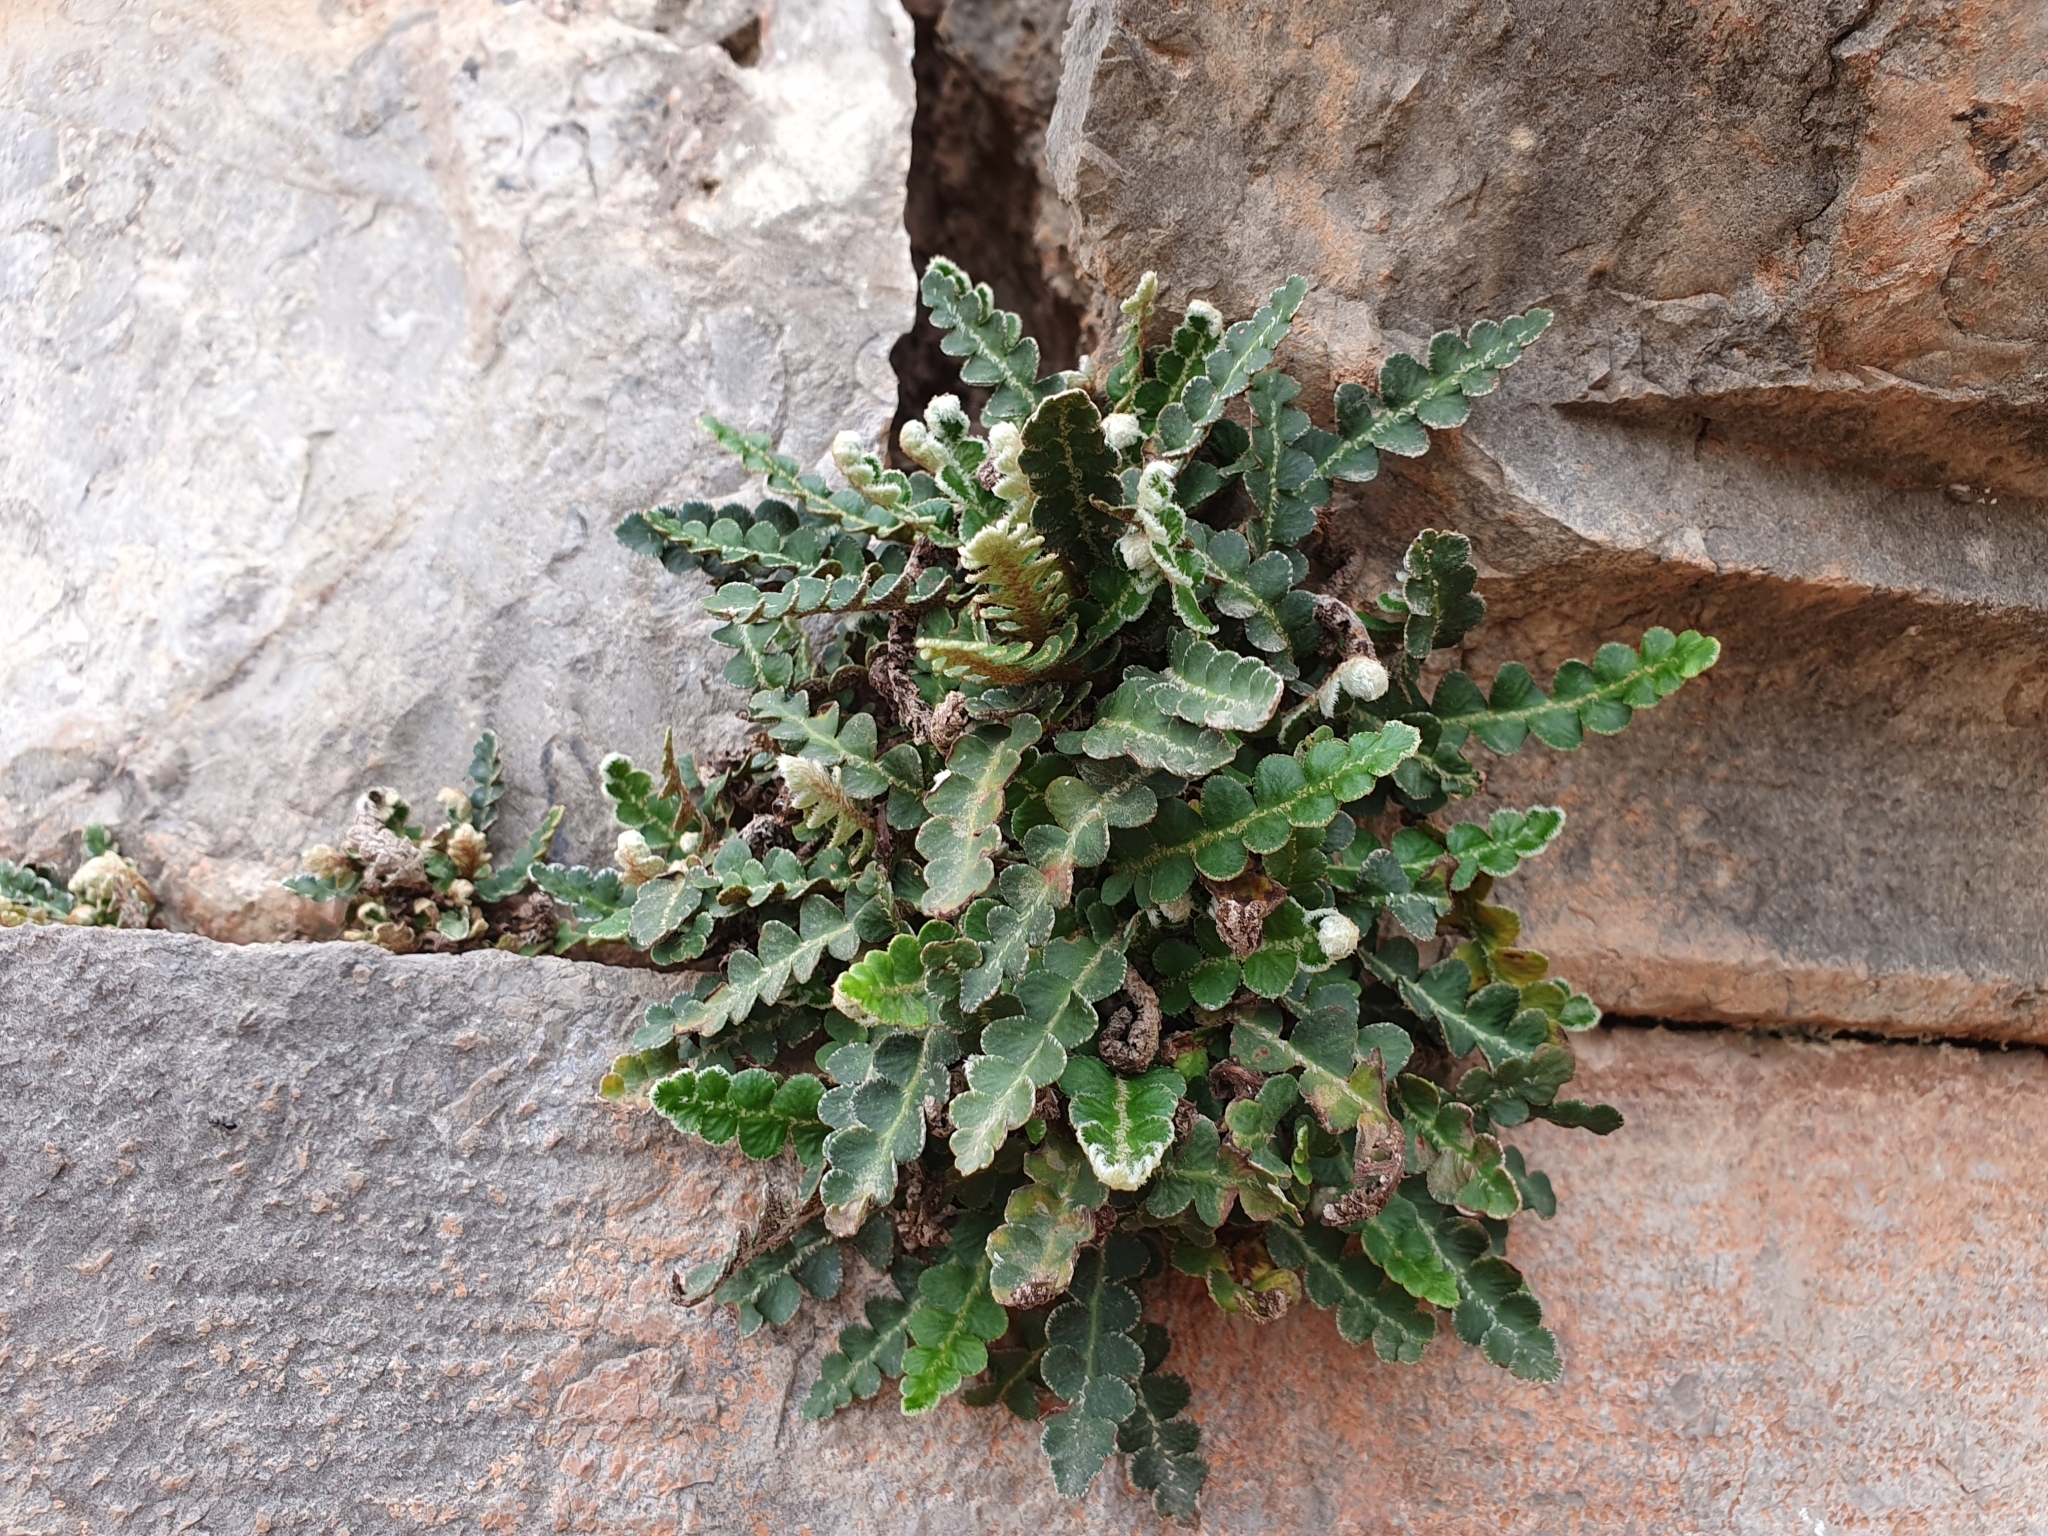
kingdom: Plantae
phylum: Tracheophyta
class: Polypodiopsida
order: Polypodiales
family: Aspleniaceae
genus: Asplenium
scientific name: Asplenium ceterach
